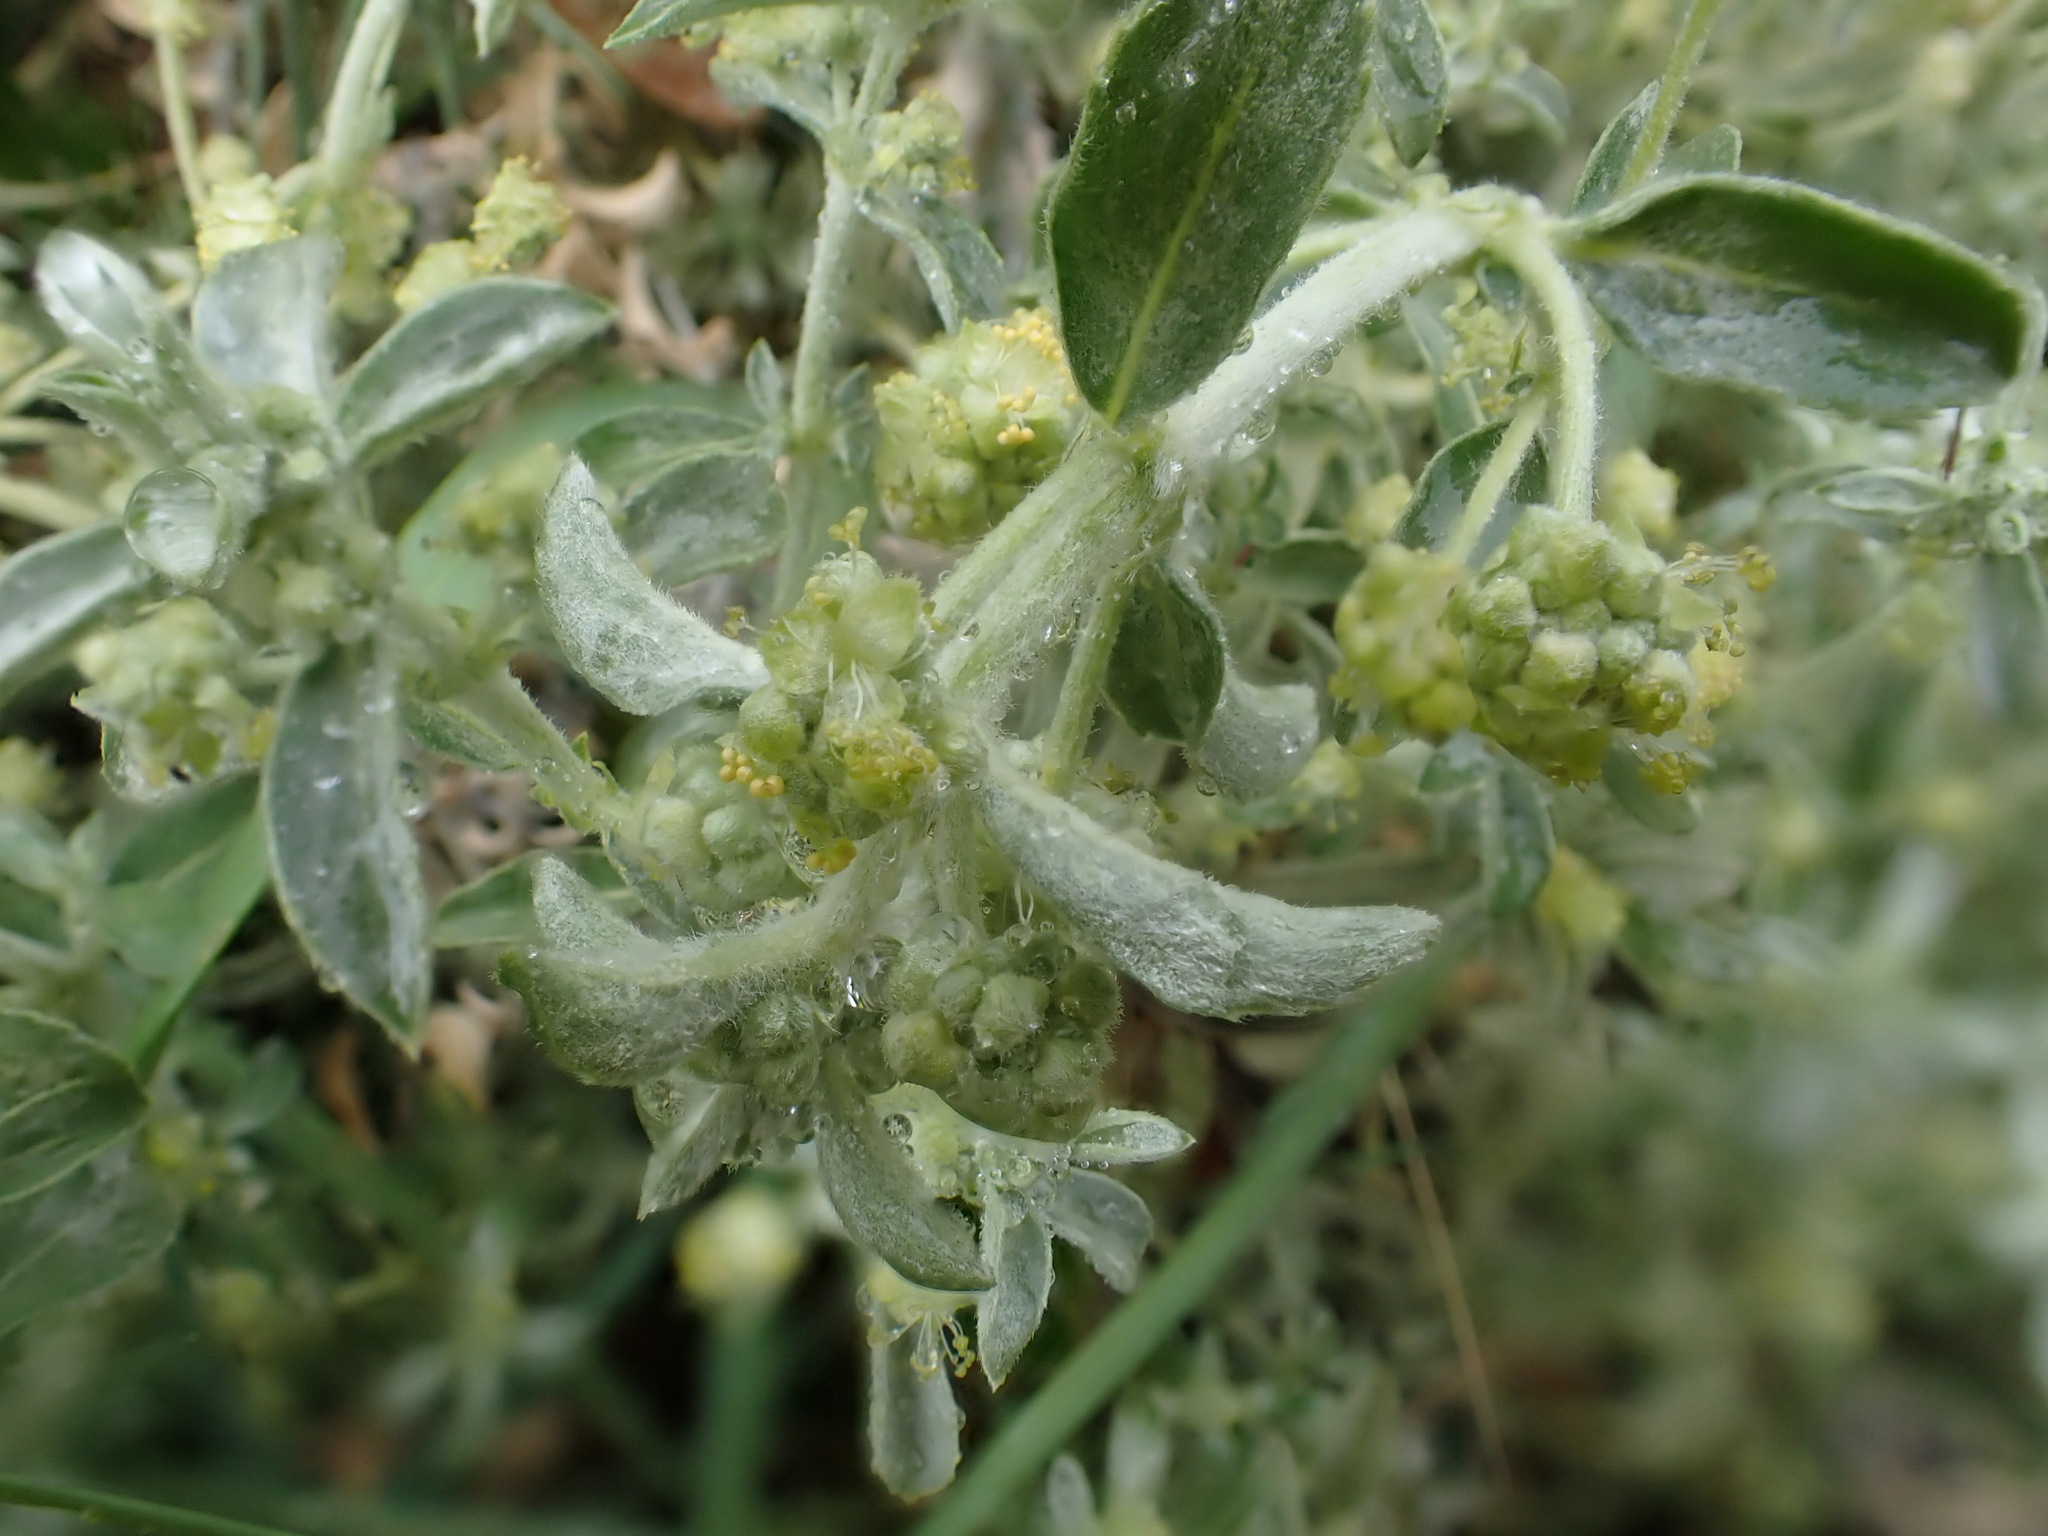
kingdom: Plantae
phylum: Tracheophyta
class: Magnoliopsida
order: Malpighiales
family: Euphorbiaceae
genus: Mercurialis
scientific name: Mercurialis tomentosa
